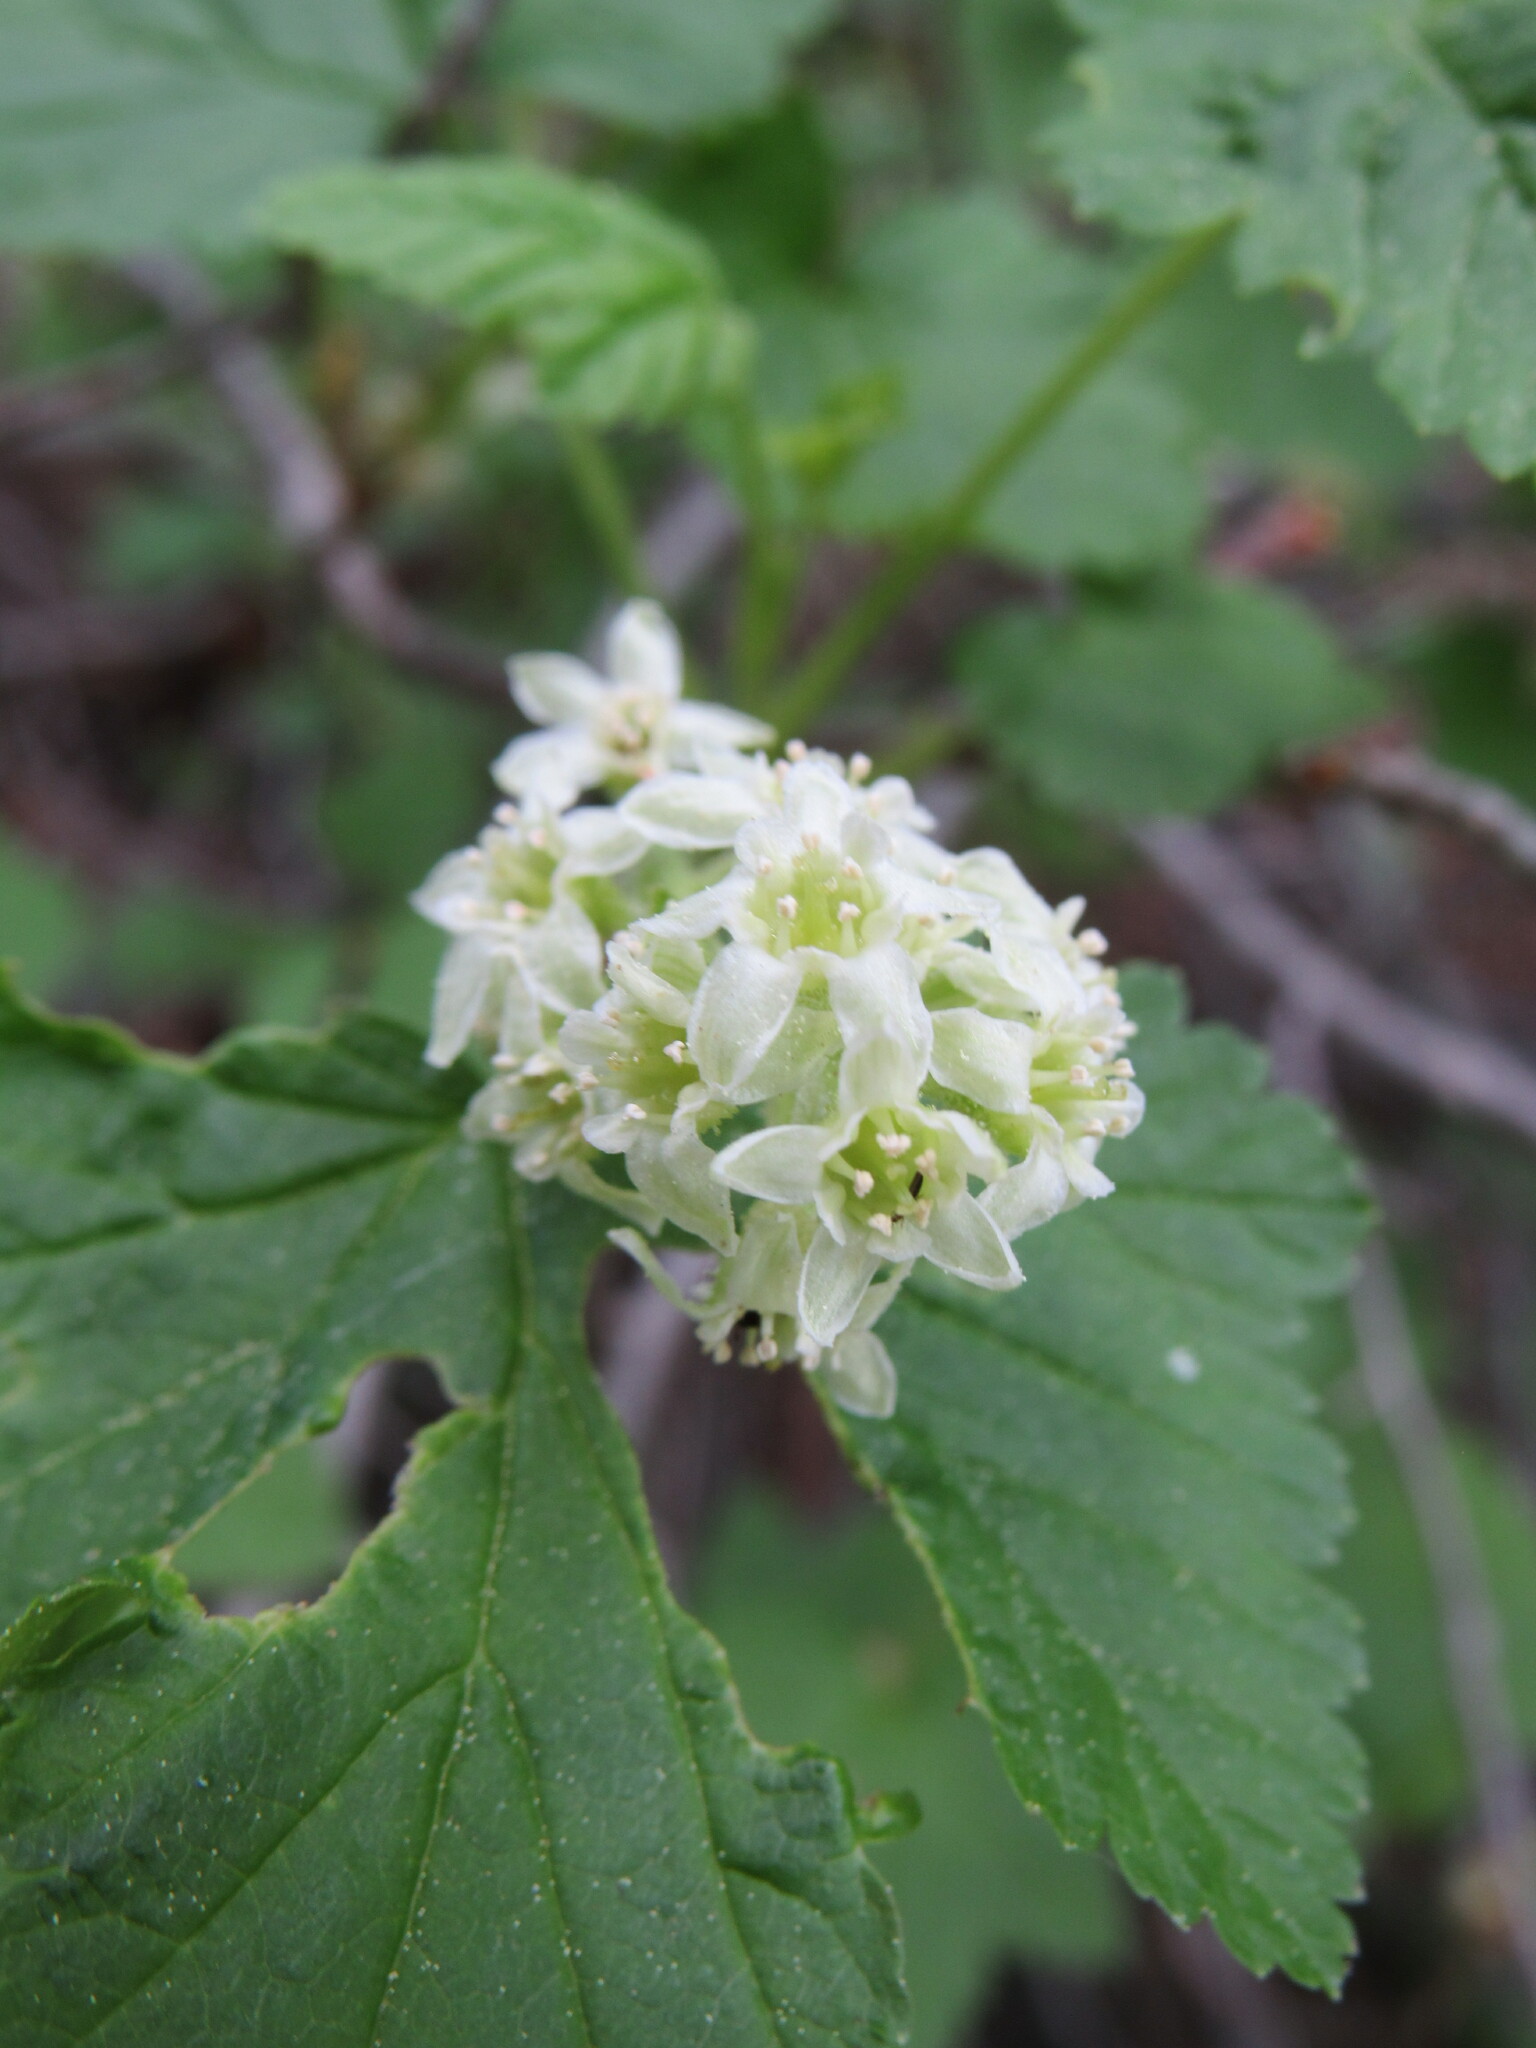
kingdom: Plantae
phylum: Tracheophyta
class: Magnoliopsida
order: Saxifragales
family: Grossulariaceae
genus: Ribes
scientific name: Ribes wolfii
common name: Rothrock currant
